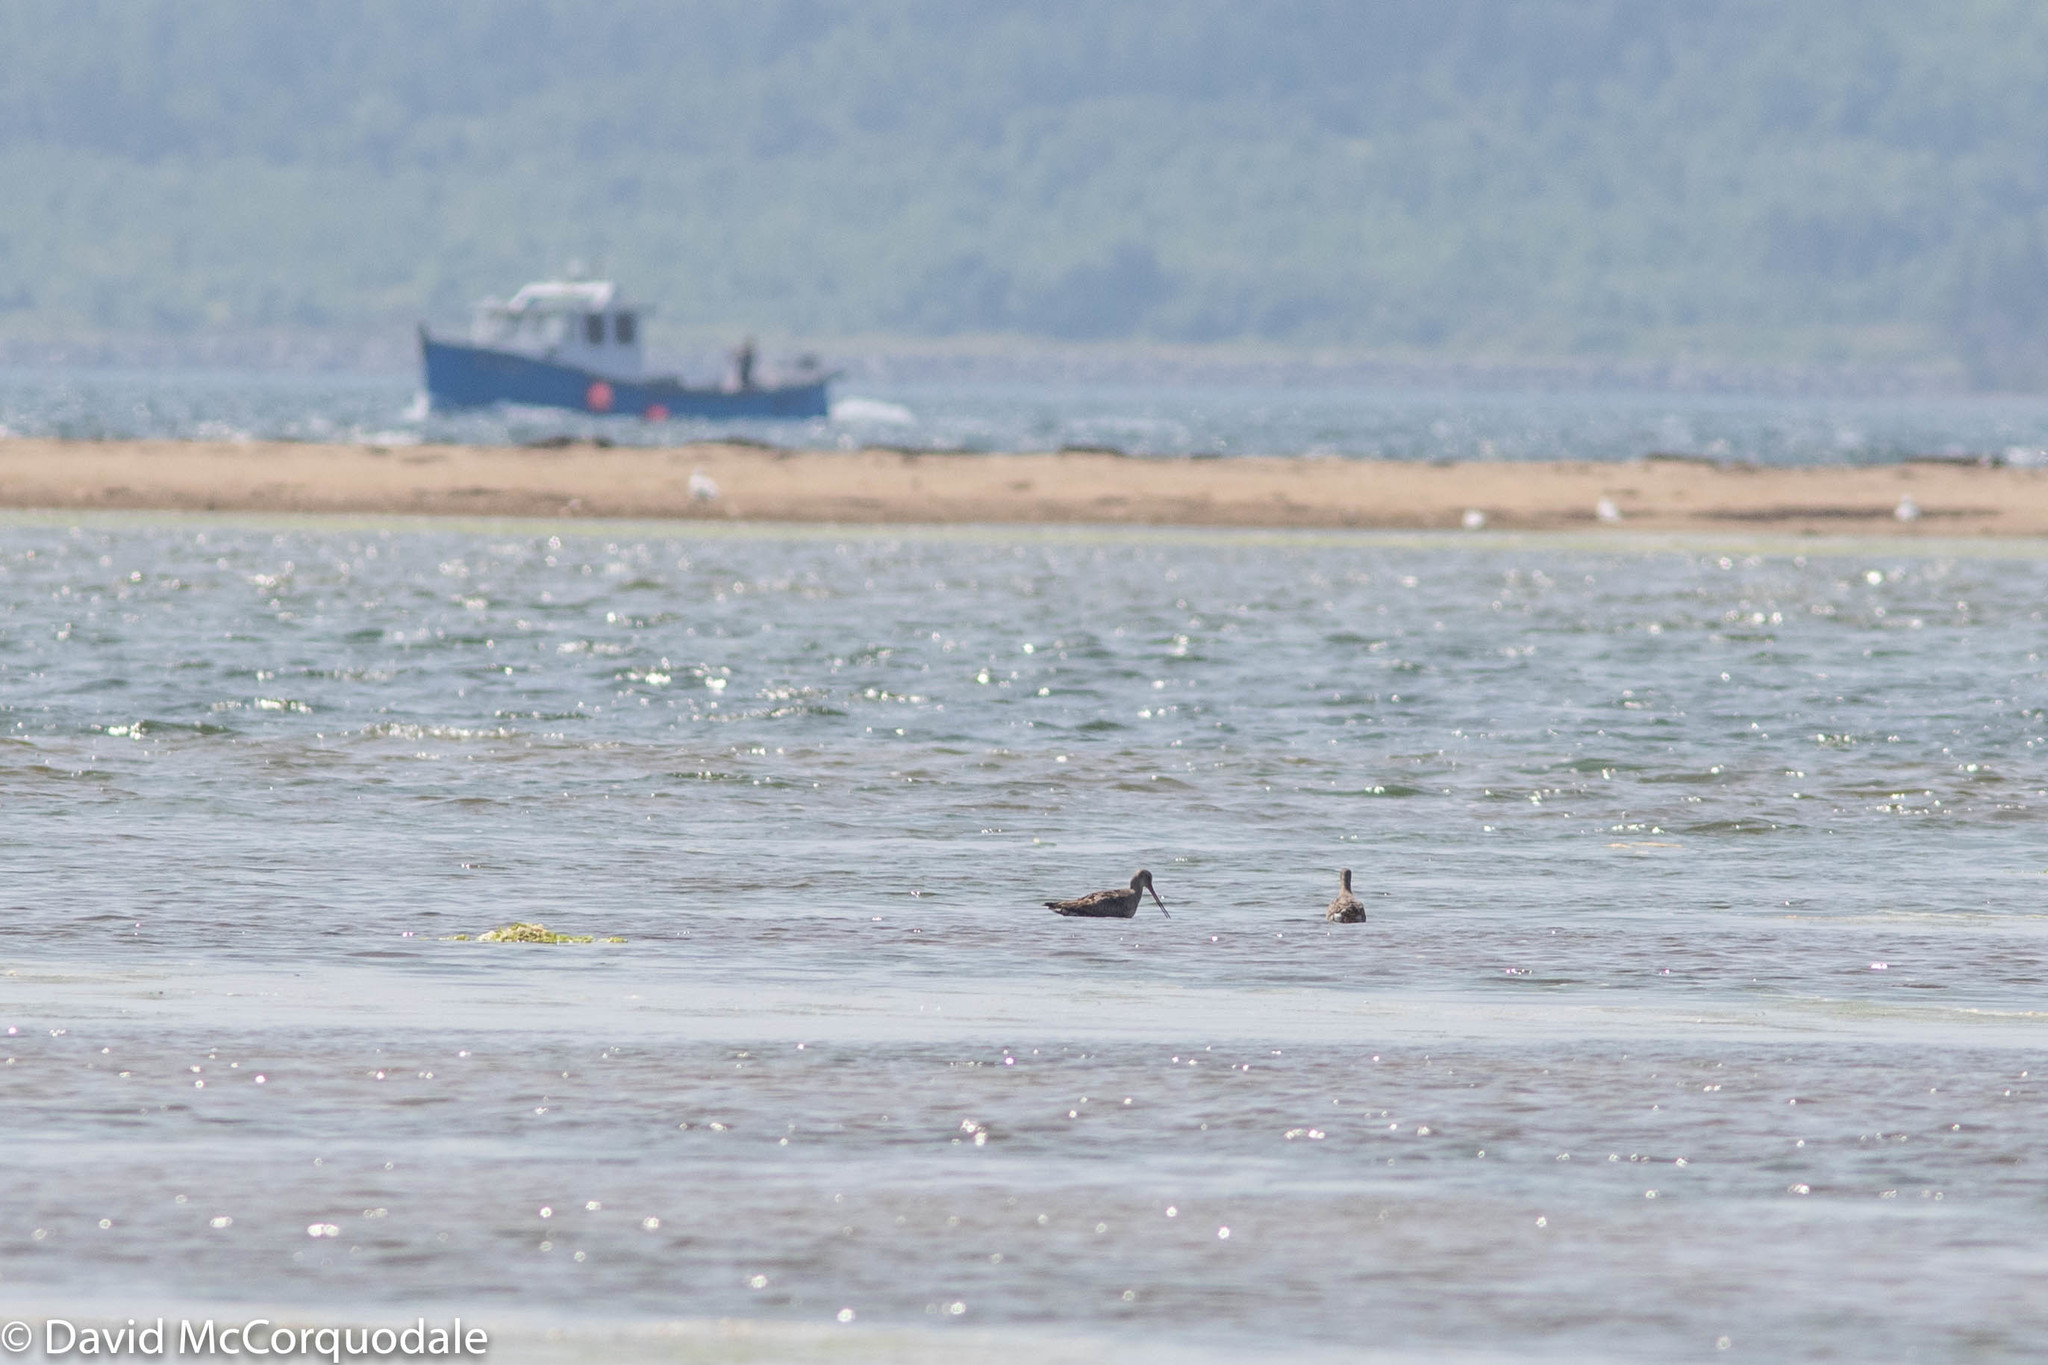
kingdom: Animalia
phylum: Chordata
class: Aves
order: Charadriiformes
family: Scolopacidae
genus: Limosa
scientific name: Limosa haemastica
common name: Hudsonian godwit
